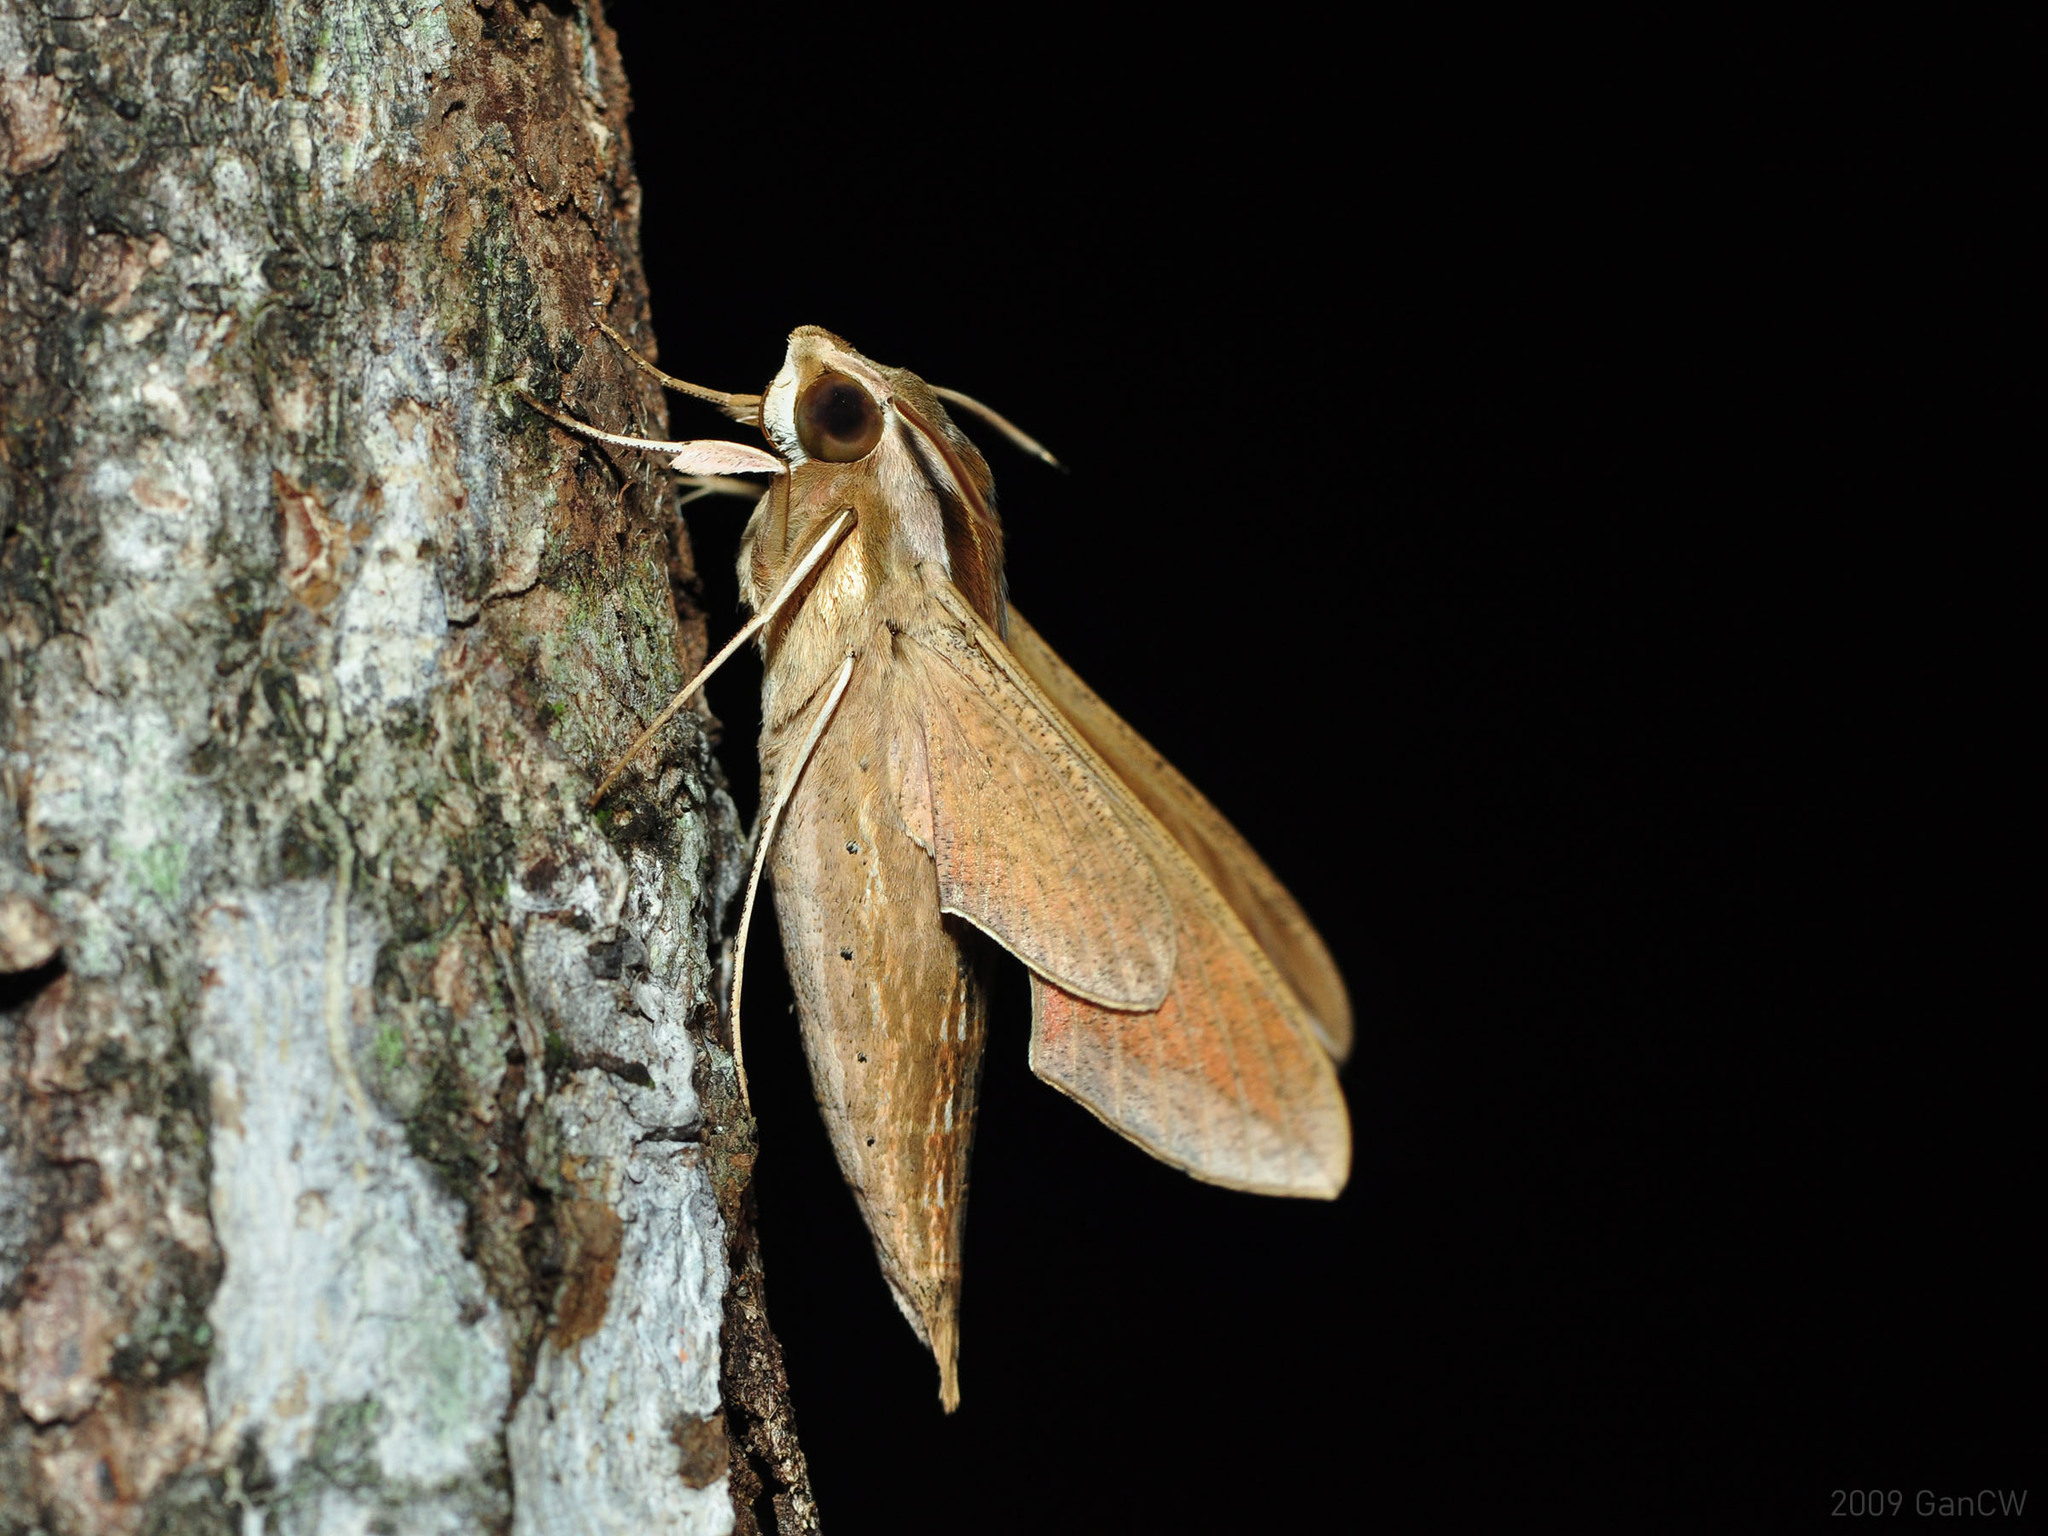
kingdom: Animalia
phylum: Arthropoda
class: Insecta
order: Lepidoptera
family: Sphingidae
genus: Hippotion
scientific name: Hippotion celerio
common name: Silver-striped hawk-moth
